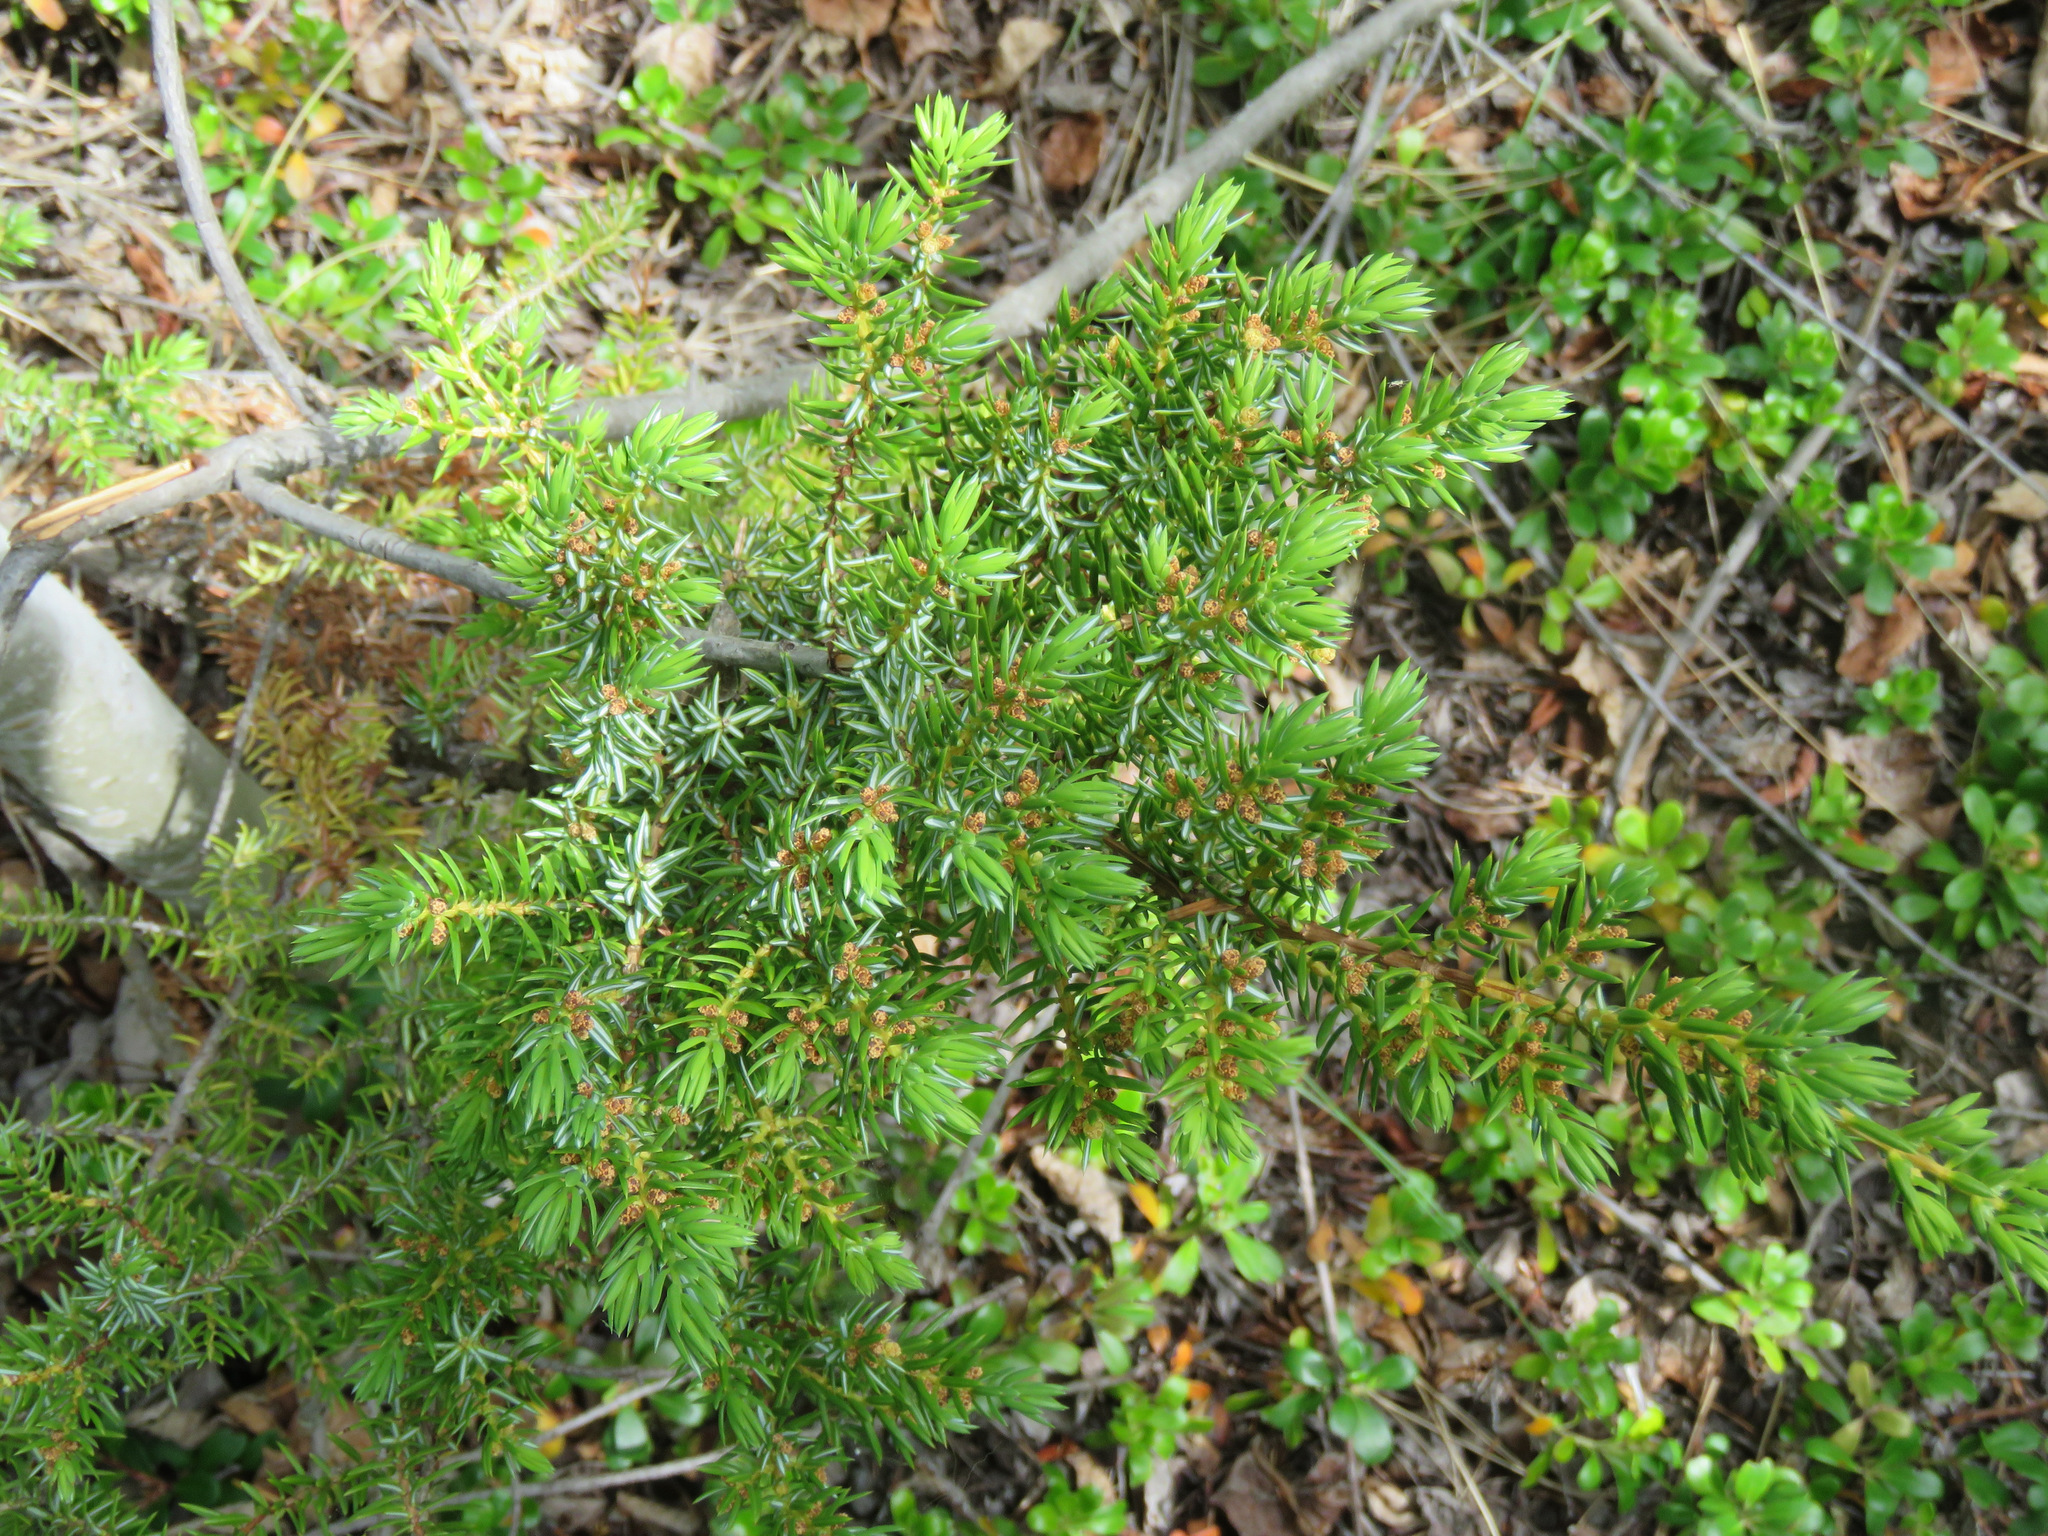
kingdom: Plantae
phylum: Tracheophyta
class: Pinopsida
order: Pinales
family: Cupressaceae
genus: Juniperus
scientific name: Juniperus communis
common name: Common juniper
